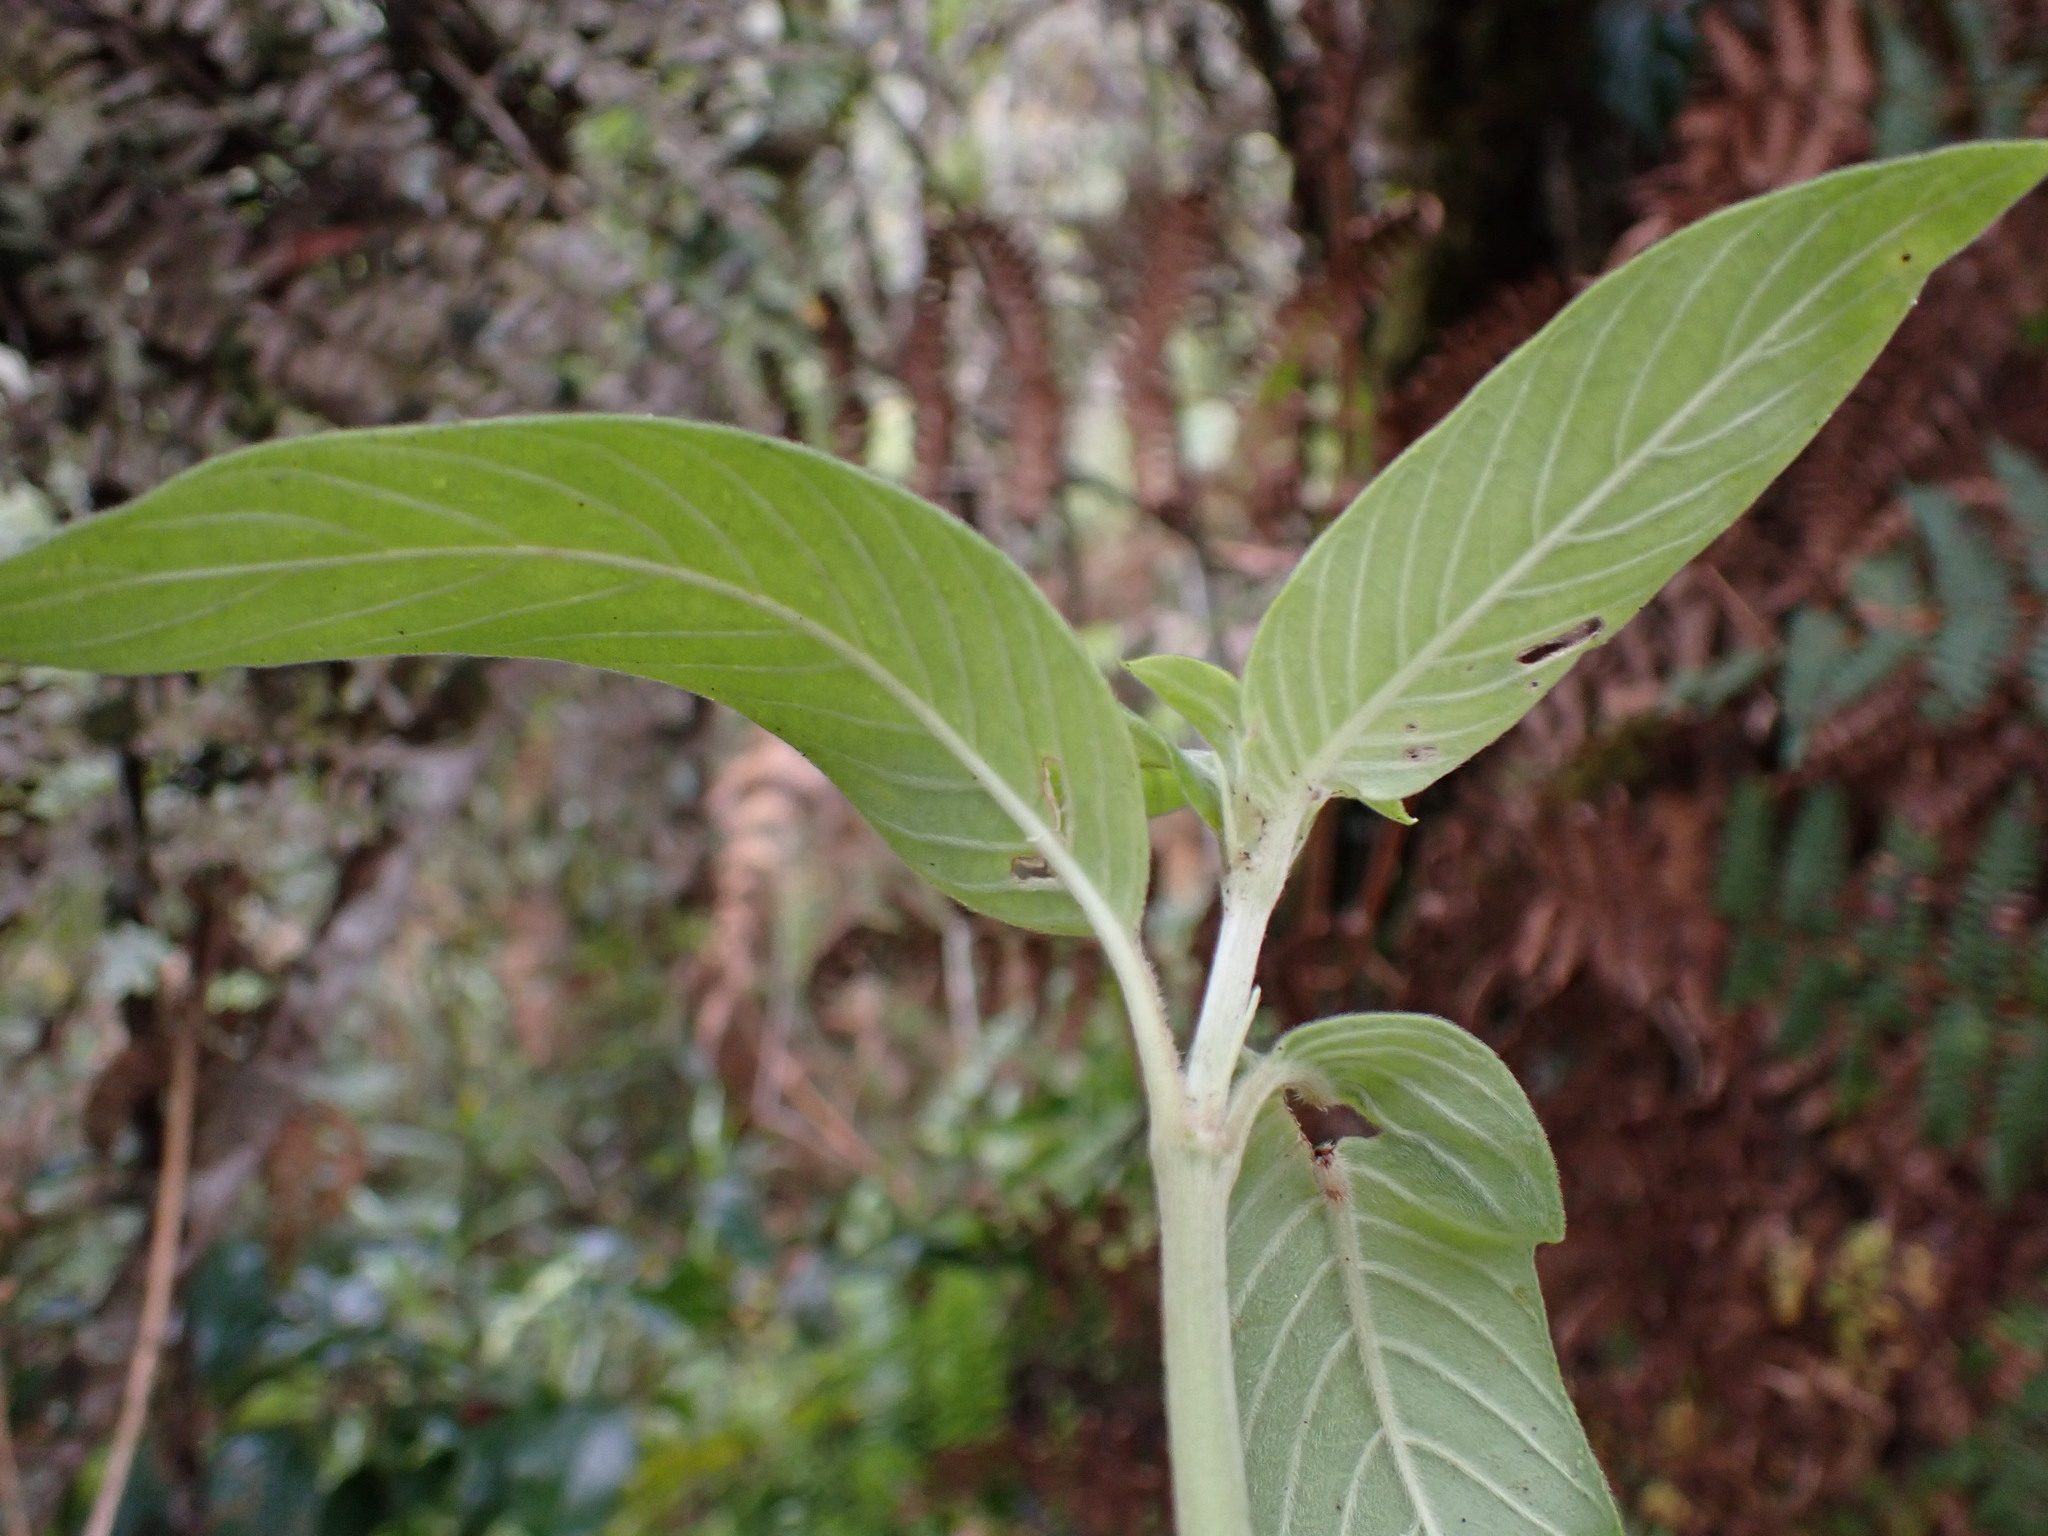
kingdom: Plantae
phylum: Tracheophyta
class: Magnoliopsida
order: Gentianales
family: Rubiaceae
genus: Coccocypselum
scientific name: Coccocypselum lanceolatum
